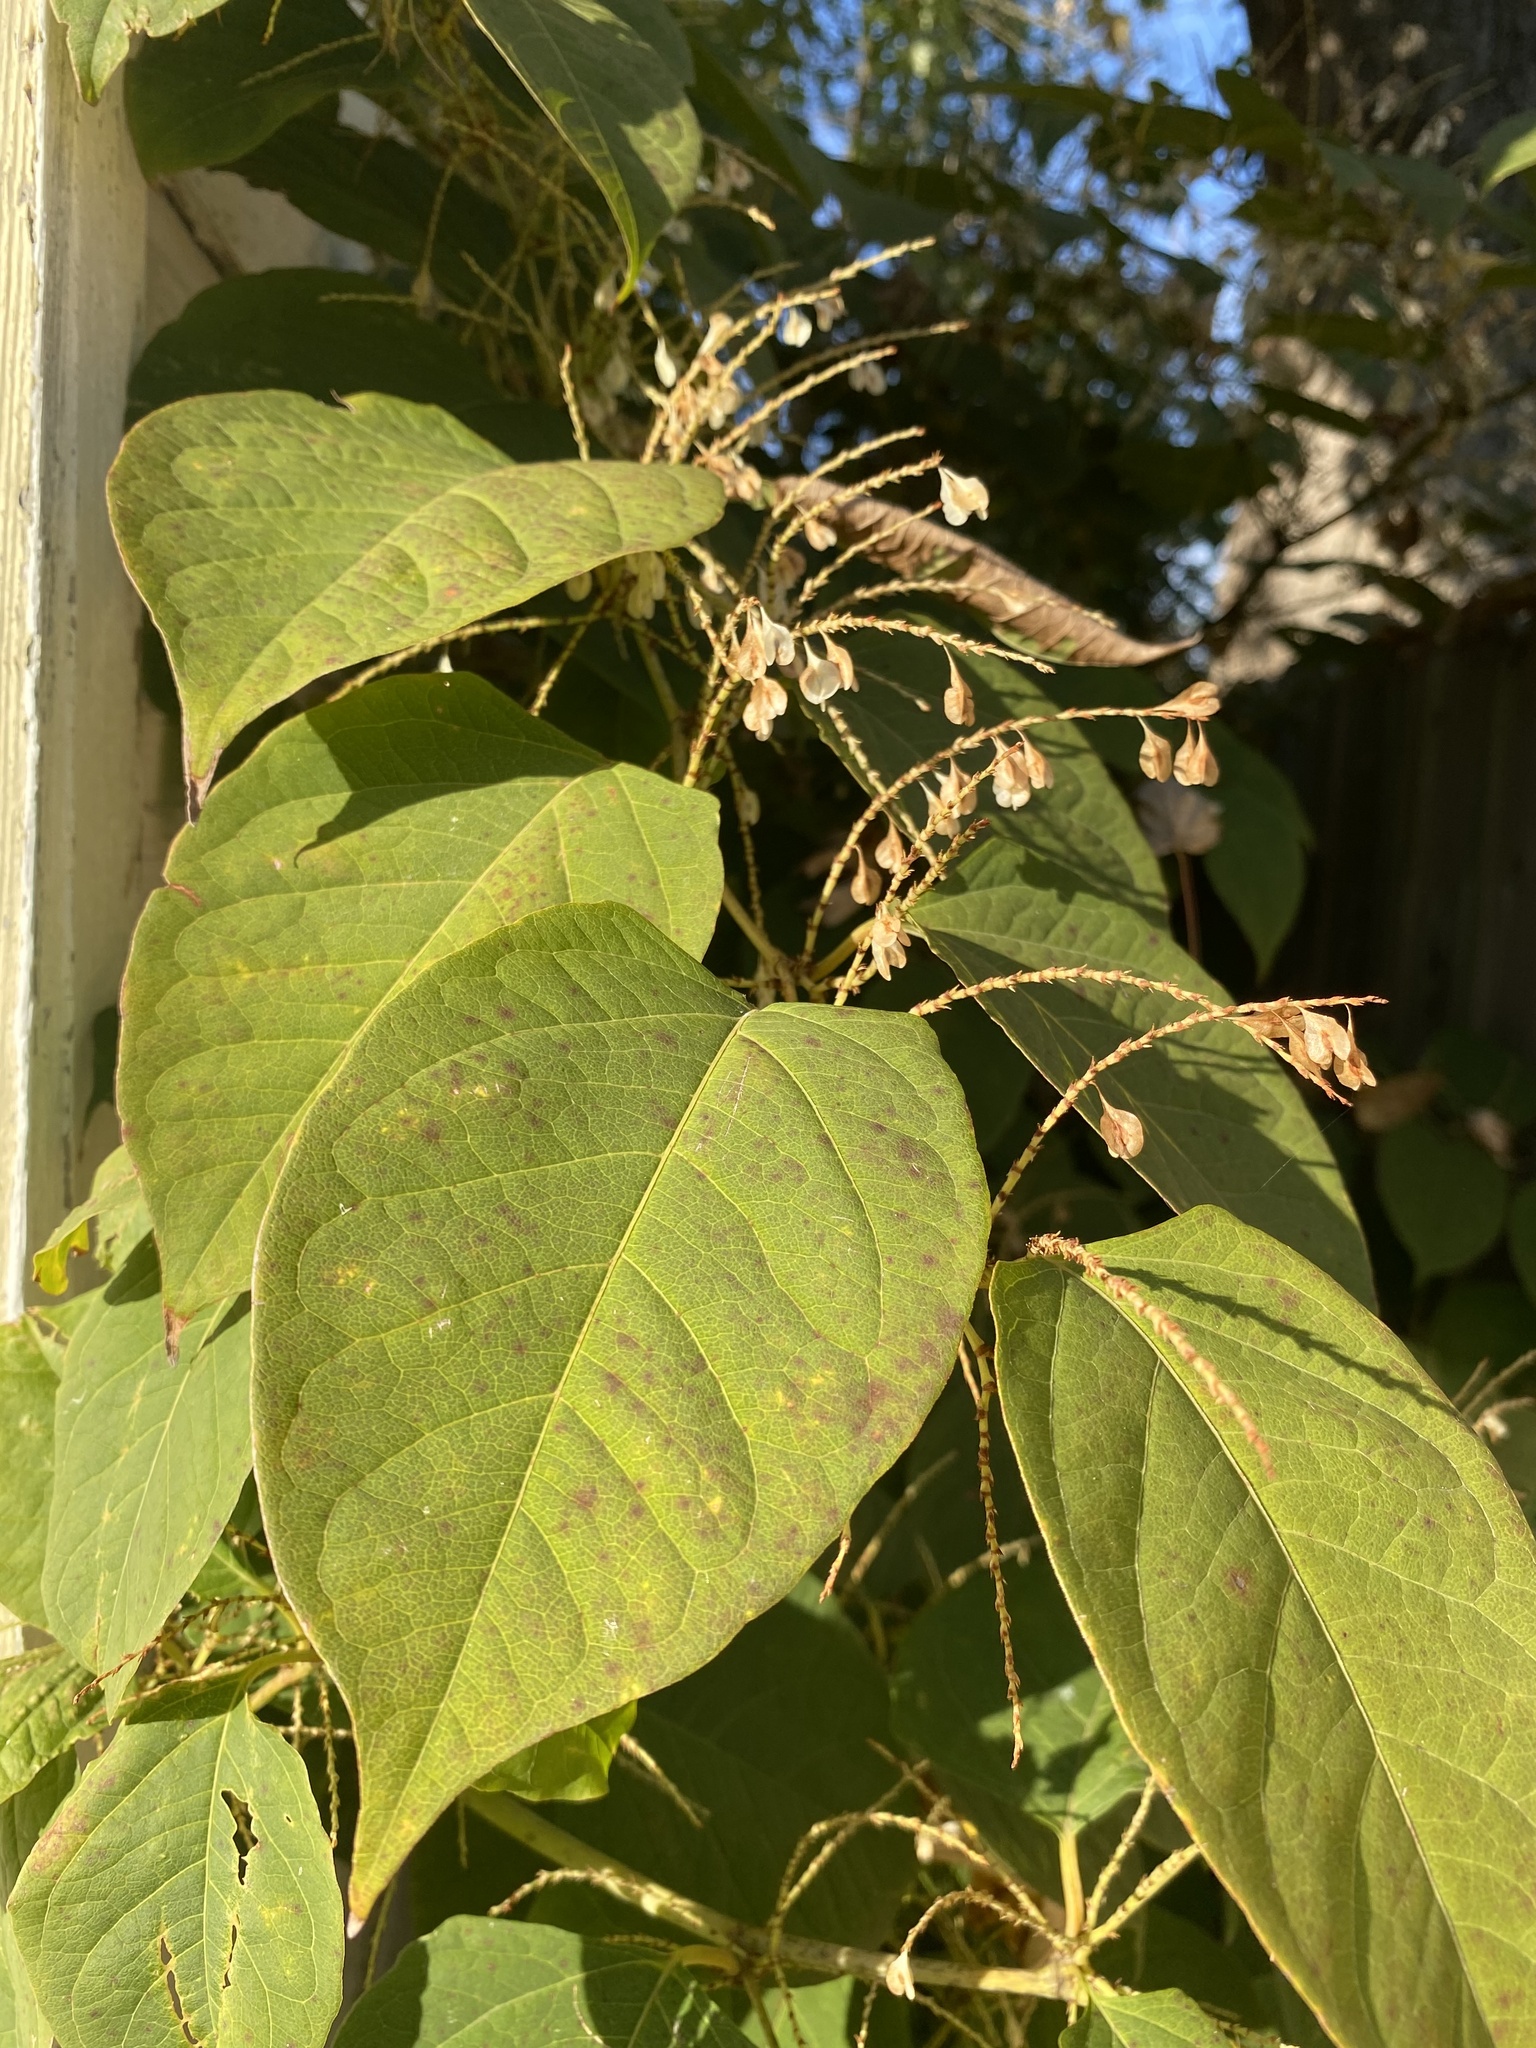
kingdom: Plantae
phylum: Tracheophyta
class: Magnoliopsida
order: Caryophyllales
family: Polygonaceae
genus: Reynoutria
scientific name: Reynoutria japonica
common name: Japanese knotweed
